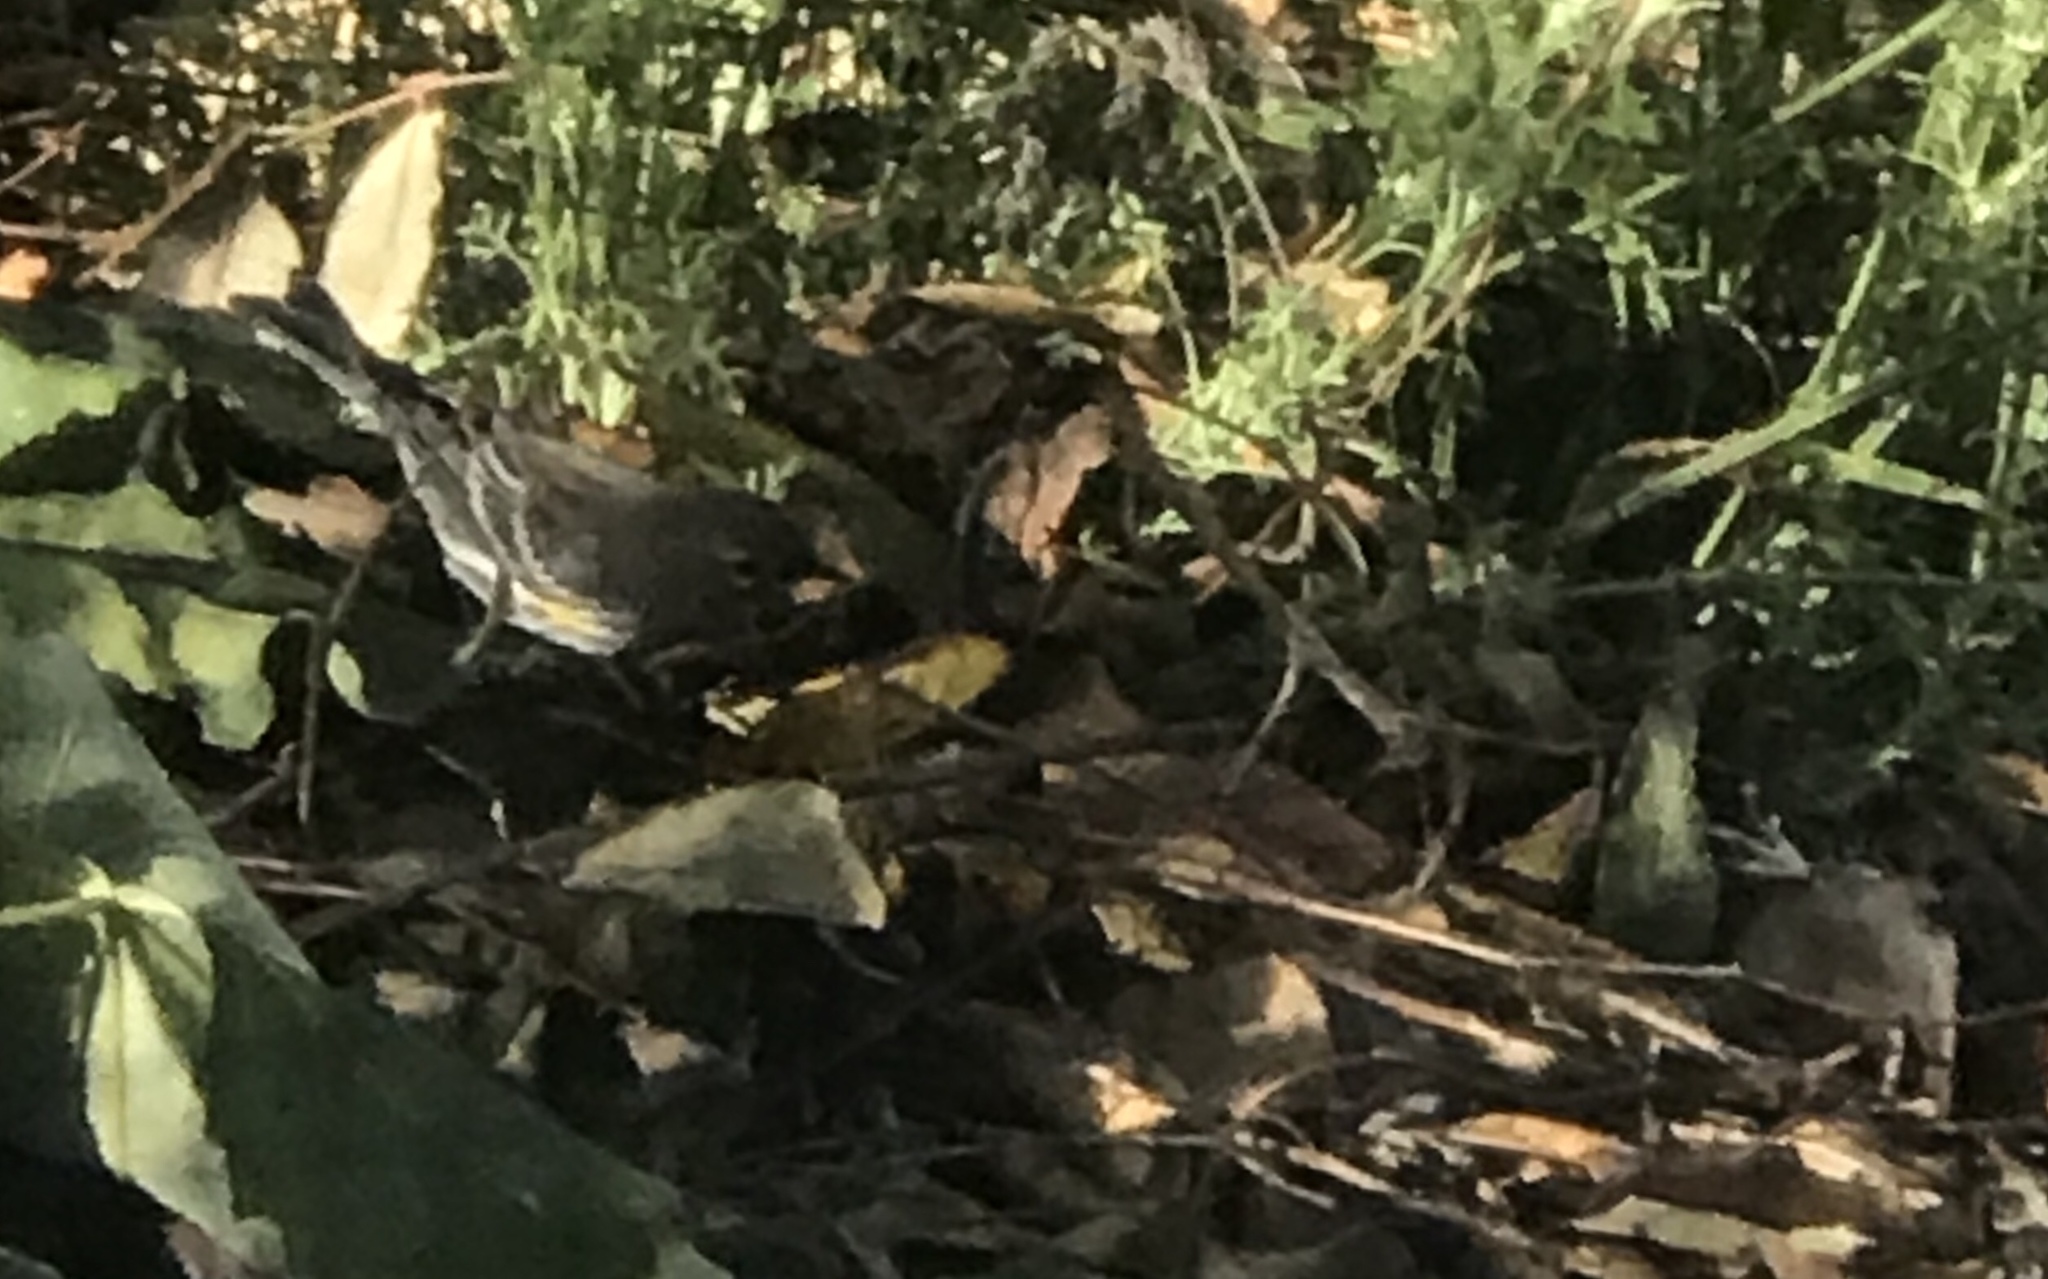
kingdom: Animalia
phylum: Chordata
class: Aves
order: Passeriformes
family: Parulidae
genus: Setophaga
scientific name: Setophaga auduboni
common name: Audubon's warbler
